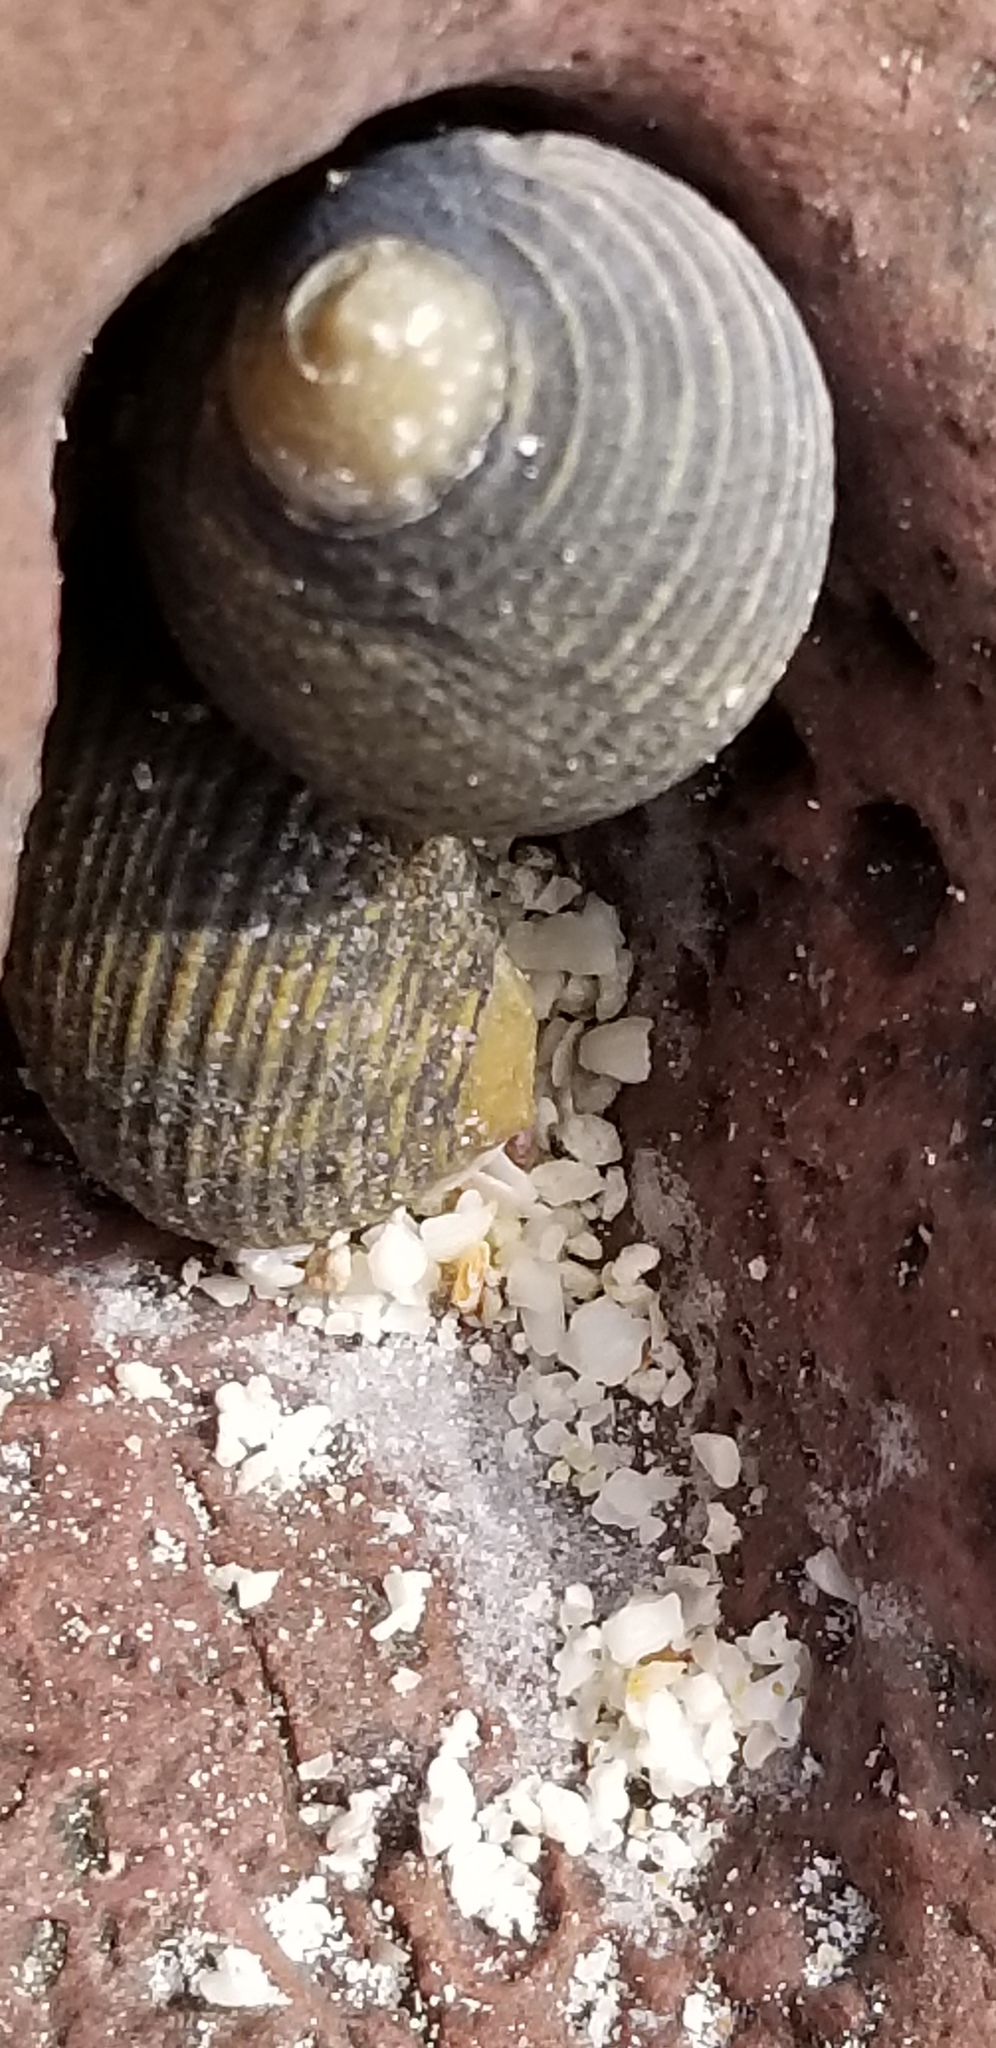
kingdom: Animalia
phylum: Mollusca
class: Gastropoda
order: Cycloneritida
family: Neritidae
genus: Nerita
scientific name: Nerita scabricosta
